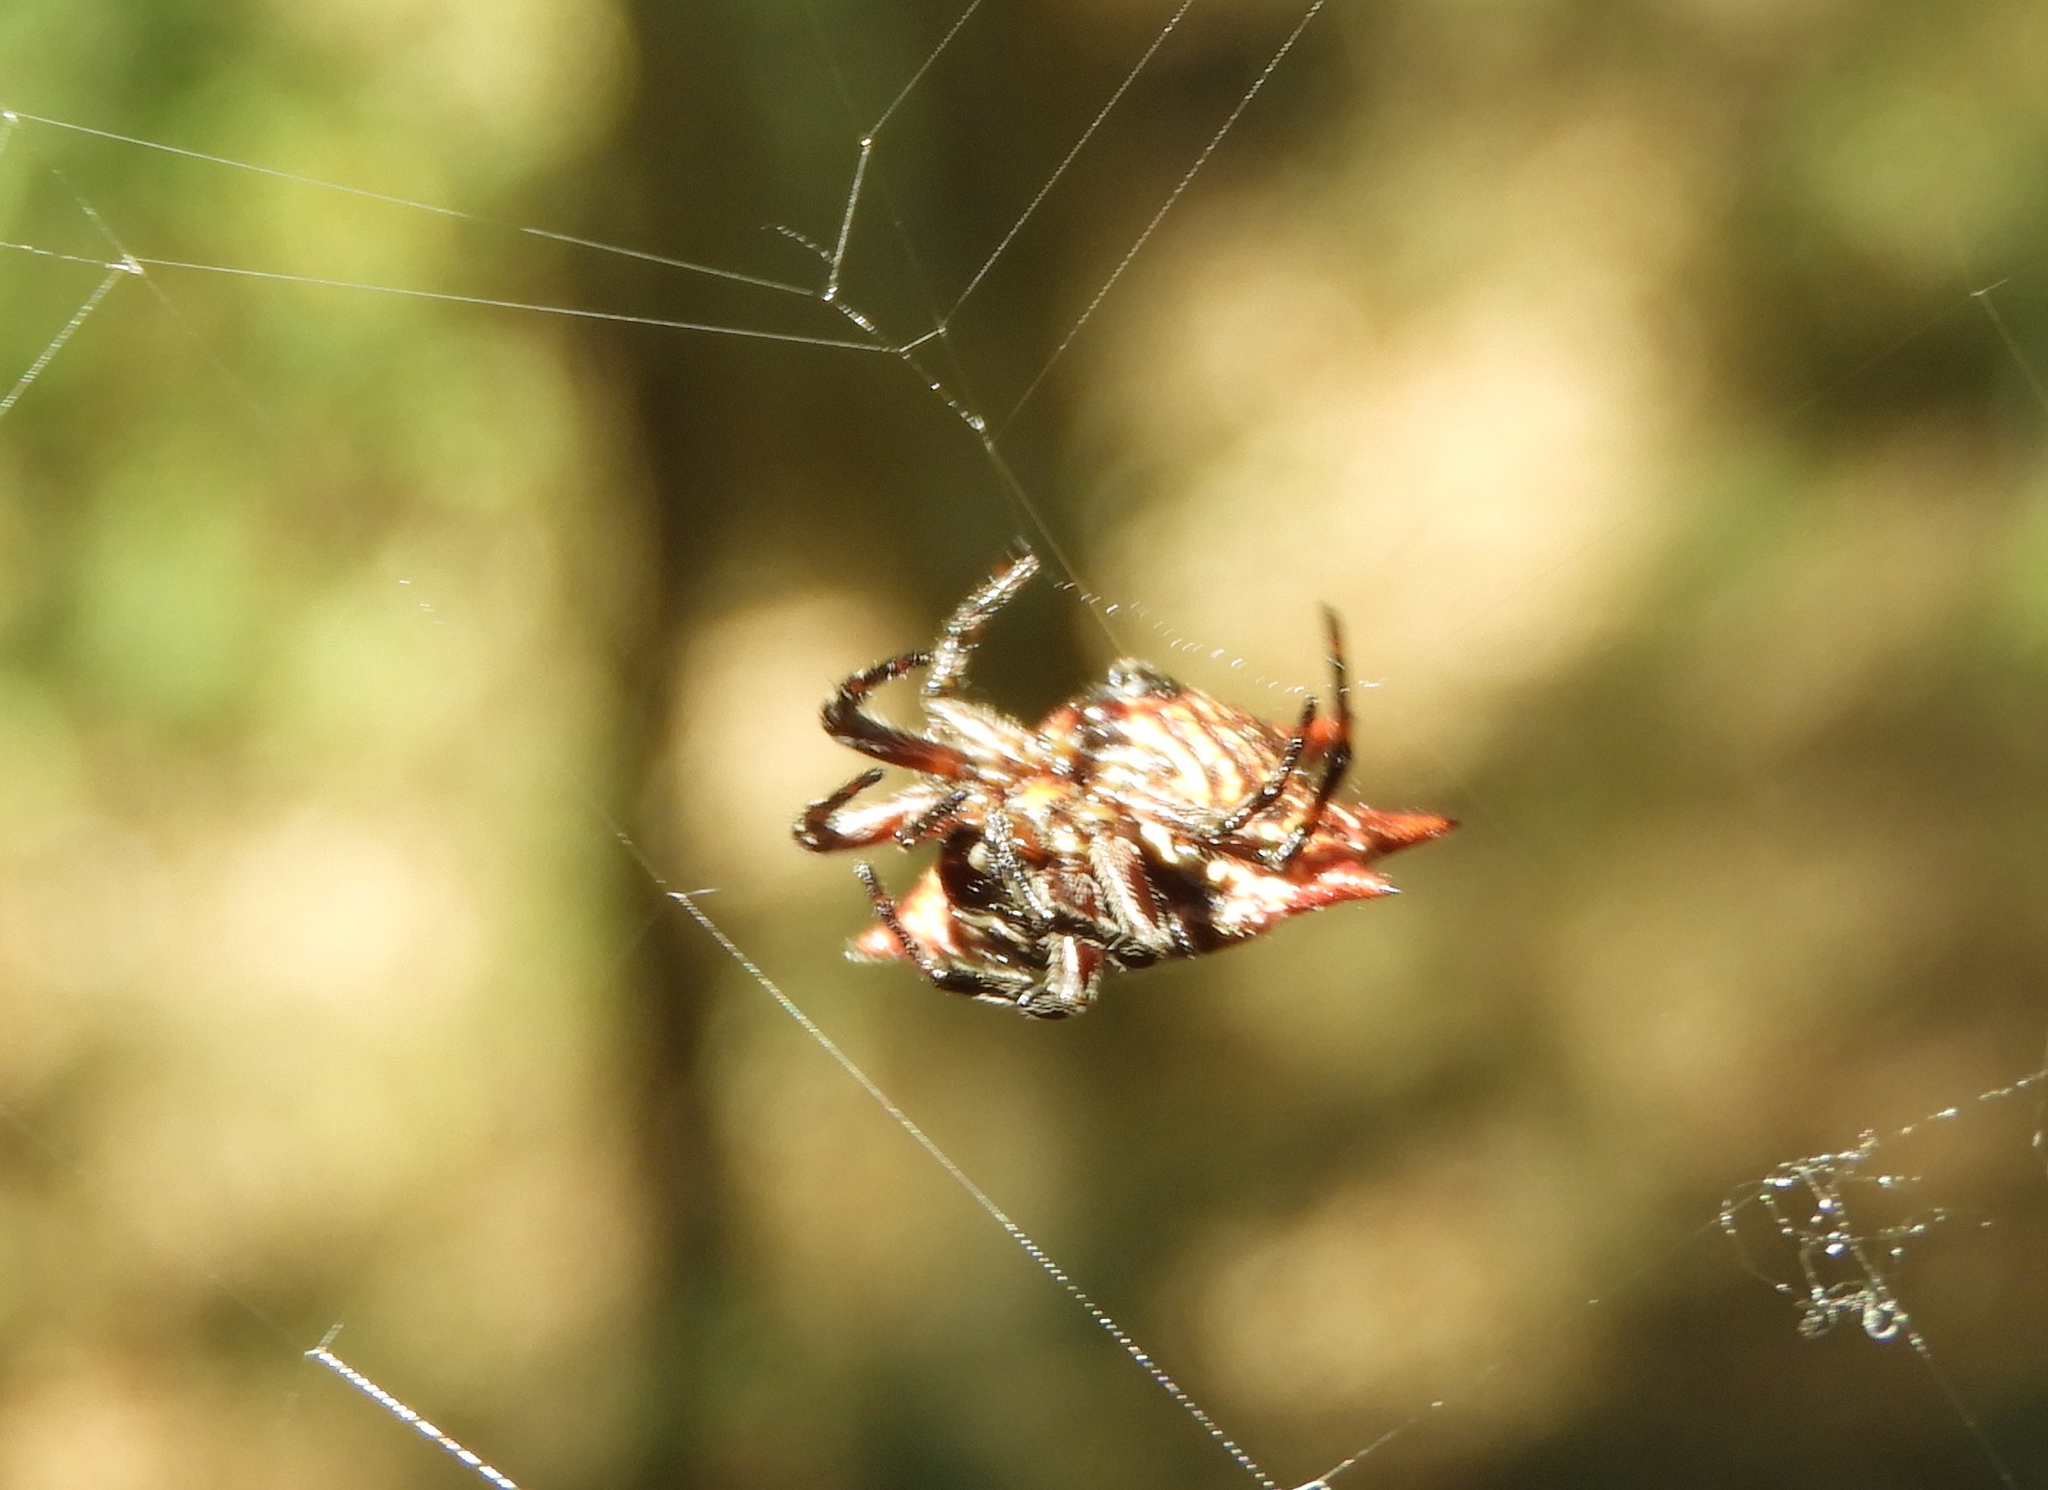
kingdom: Animalia
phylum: Arthropoda
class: Arachnida
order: Araneae
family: Araneidae
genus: Gasteracantha
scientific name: Gasteracantha cancriformis
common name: Orb weavers
